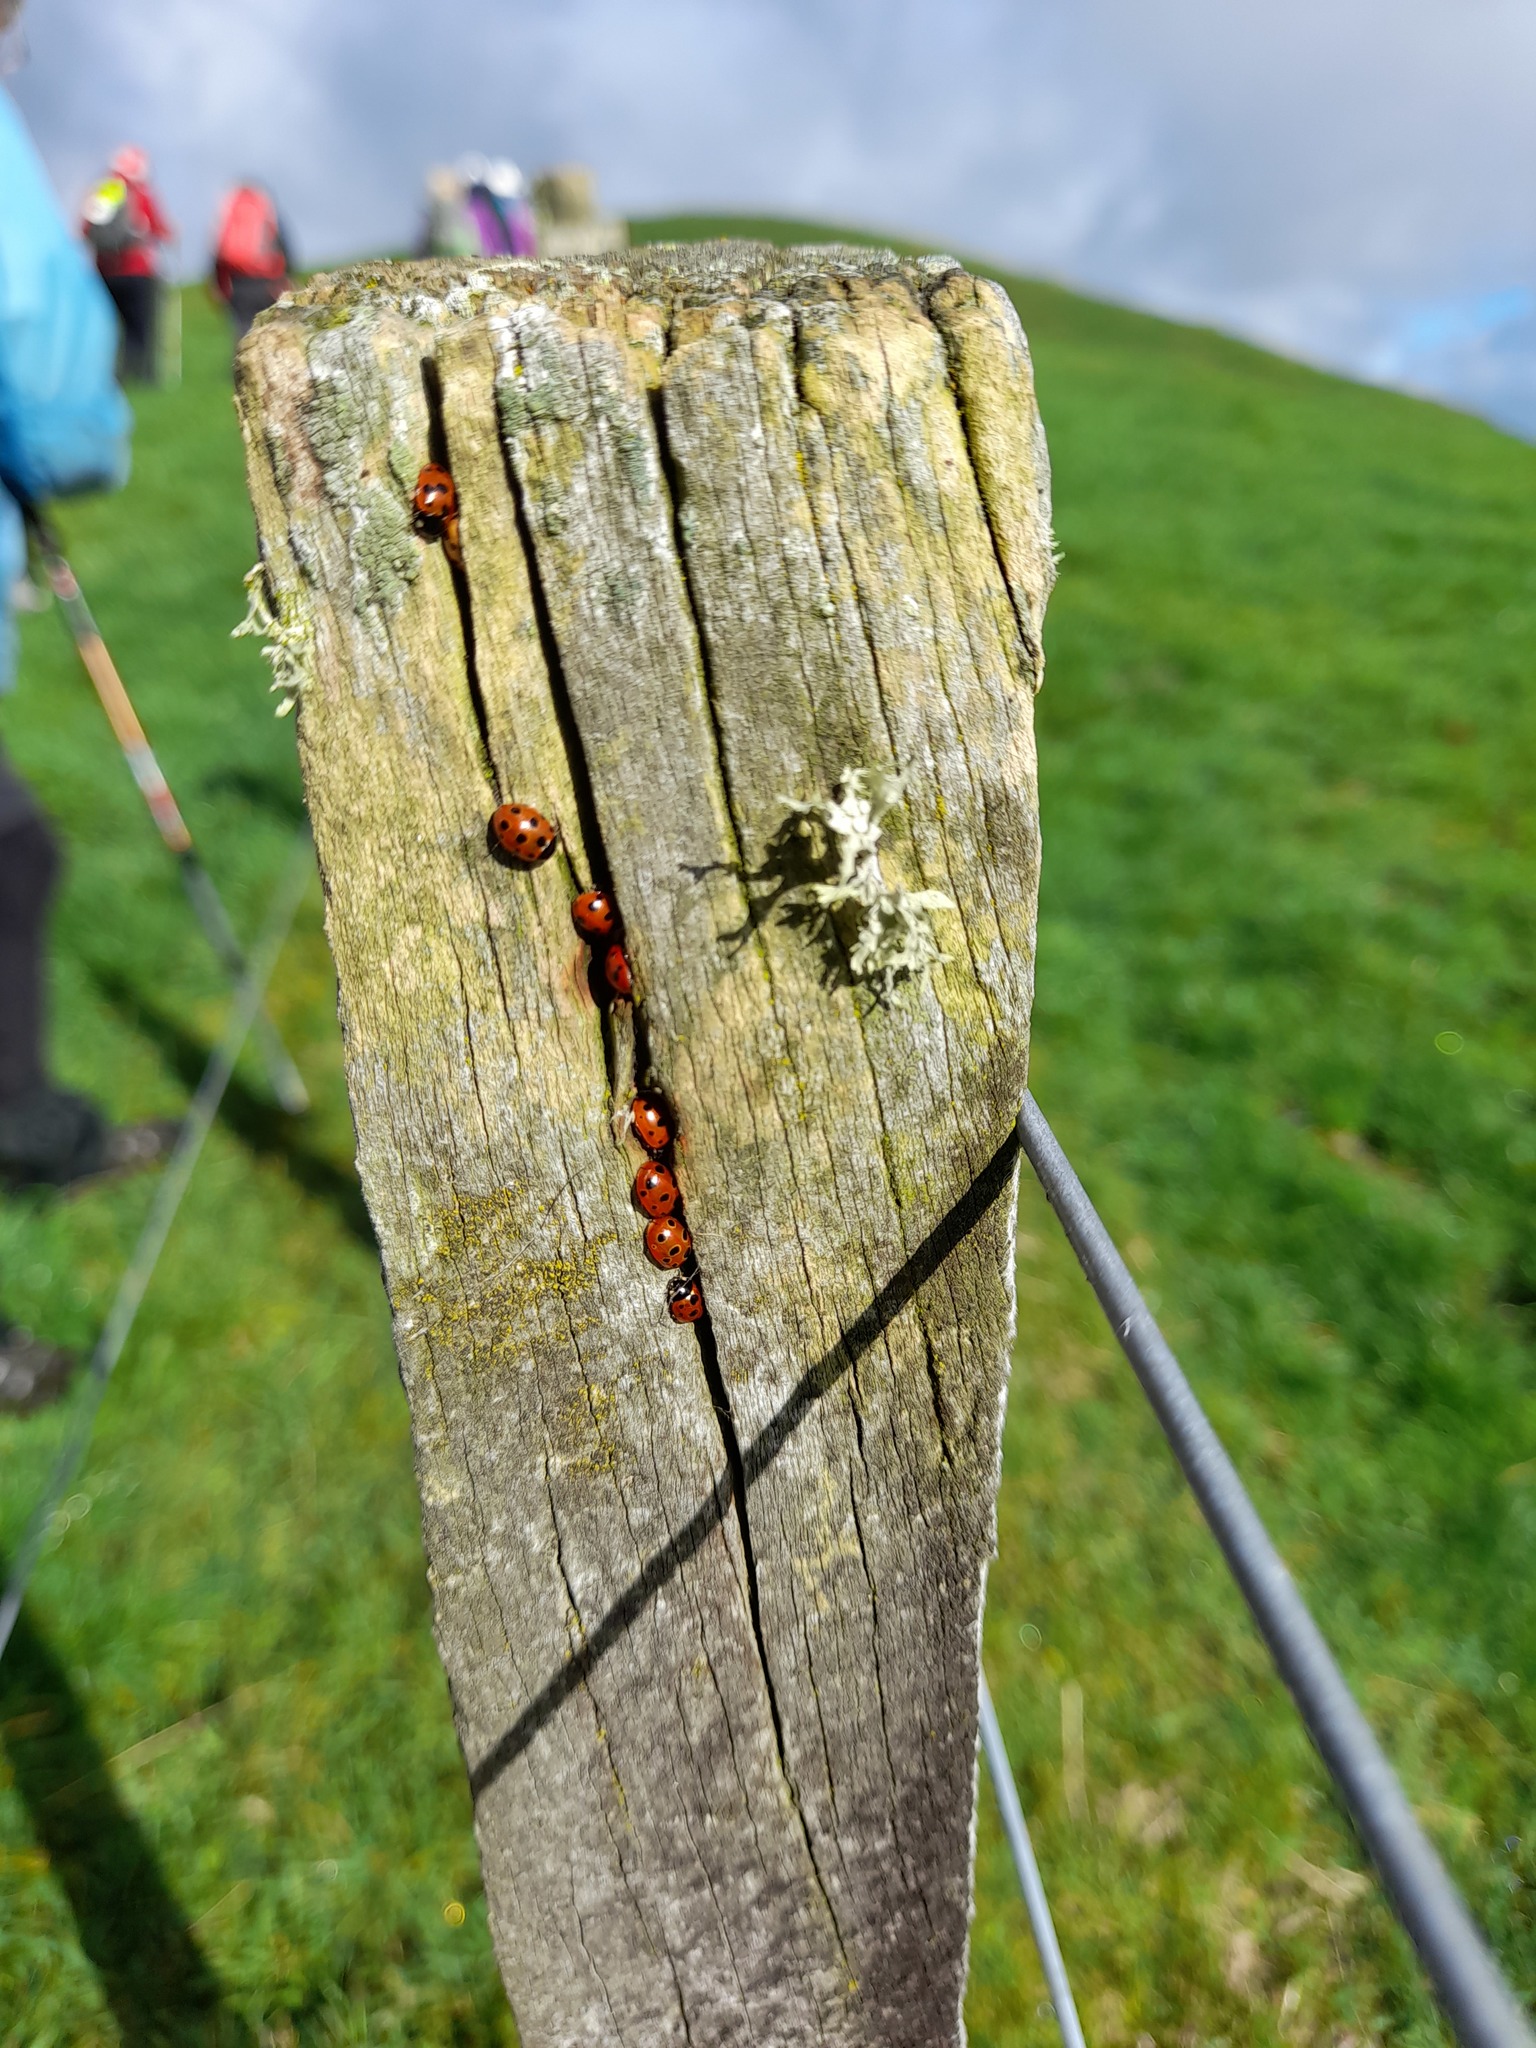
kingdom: Animalia
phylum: Arthropoda
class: Insecta
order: Coleoptera
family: Coccinellidae
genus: Coccinella
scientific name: Coccinella undecimpunctata
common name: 11-spot ladybird
